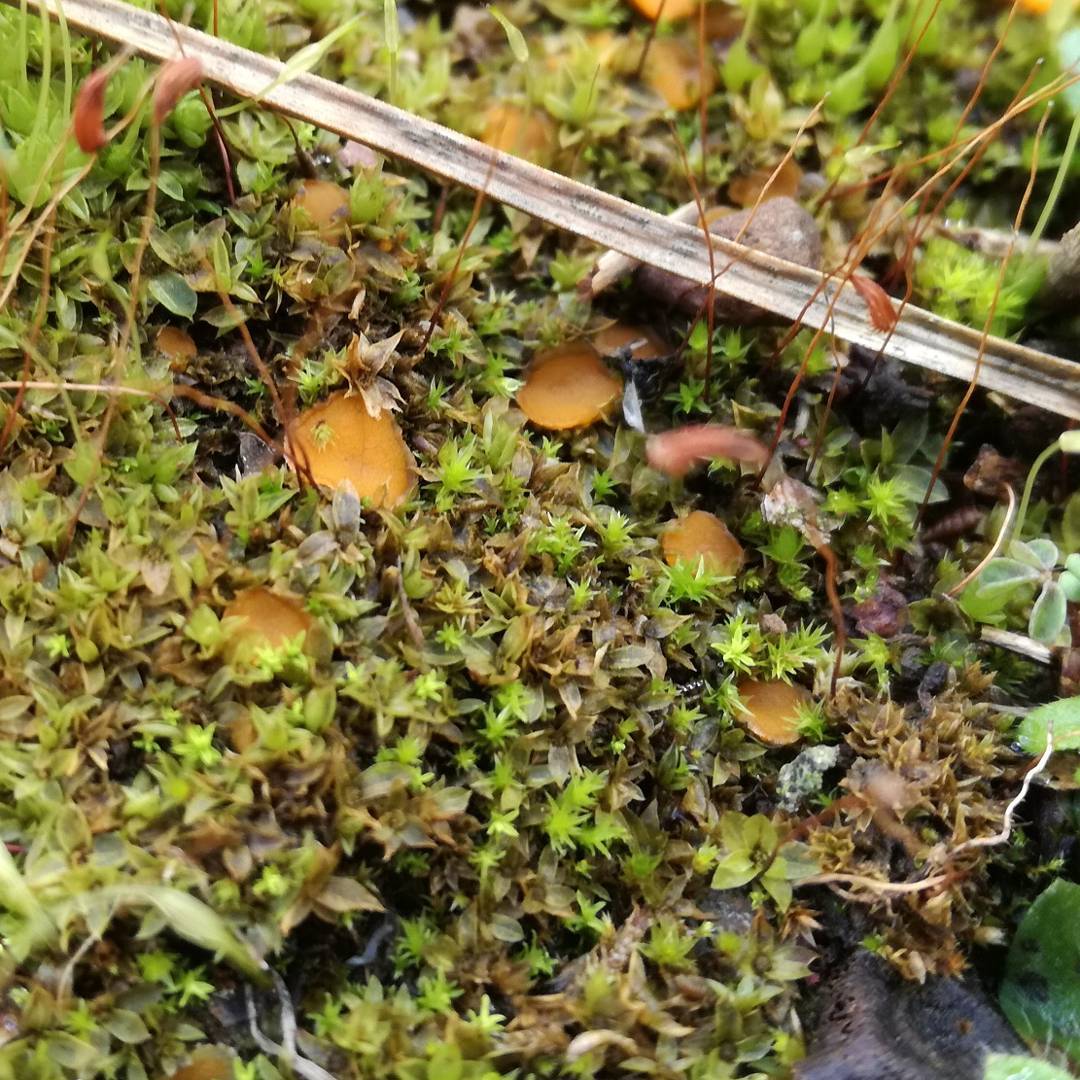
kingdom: Fungi
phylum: Ascomycota
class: Pezizomycetes
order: Pezizales
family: Pyronemataceae
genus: Octospora
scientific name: Octospora rustica
